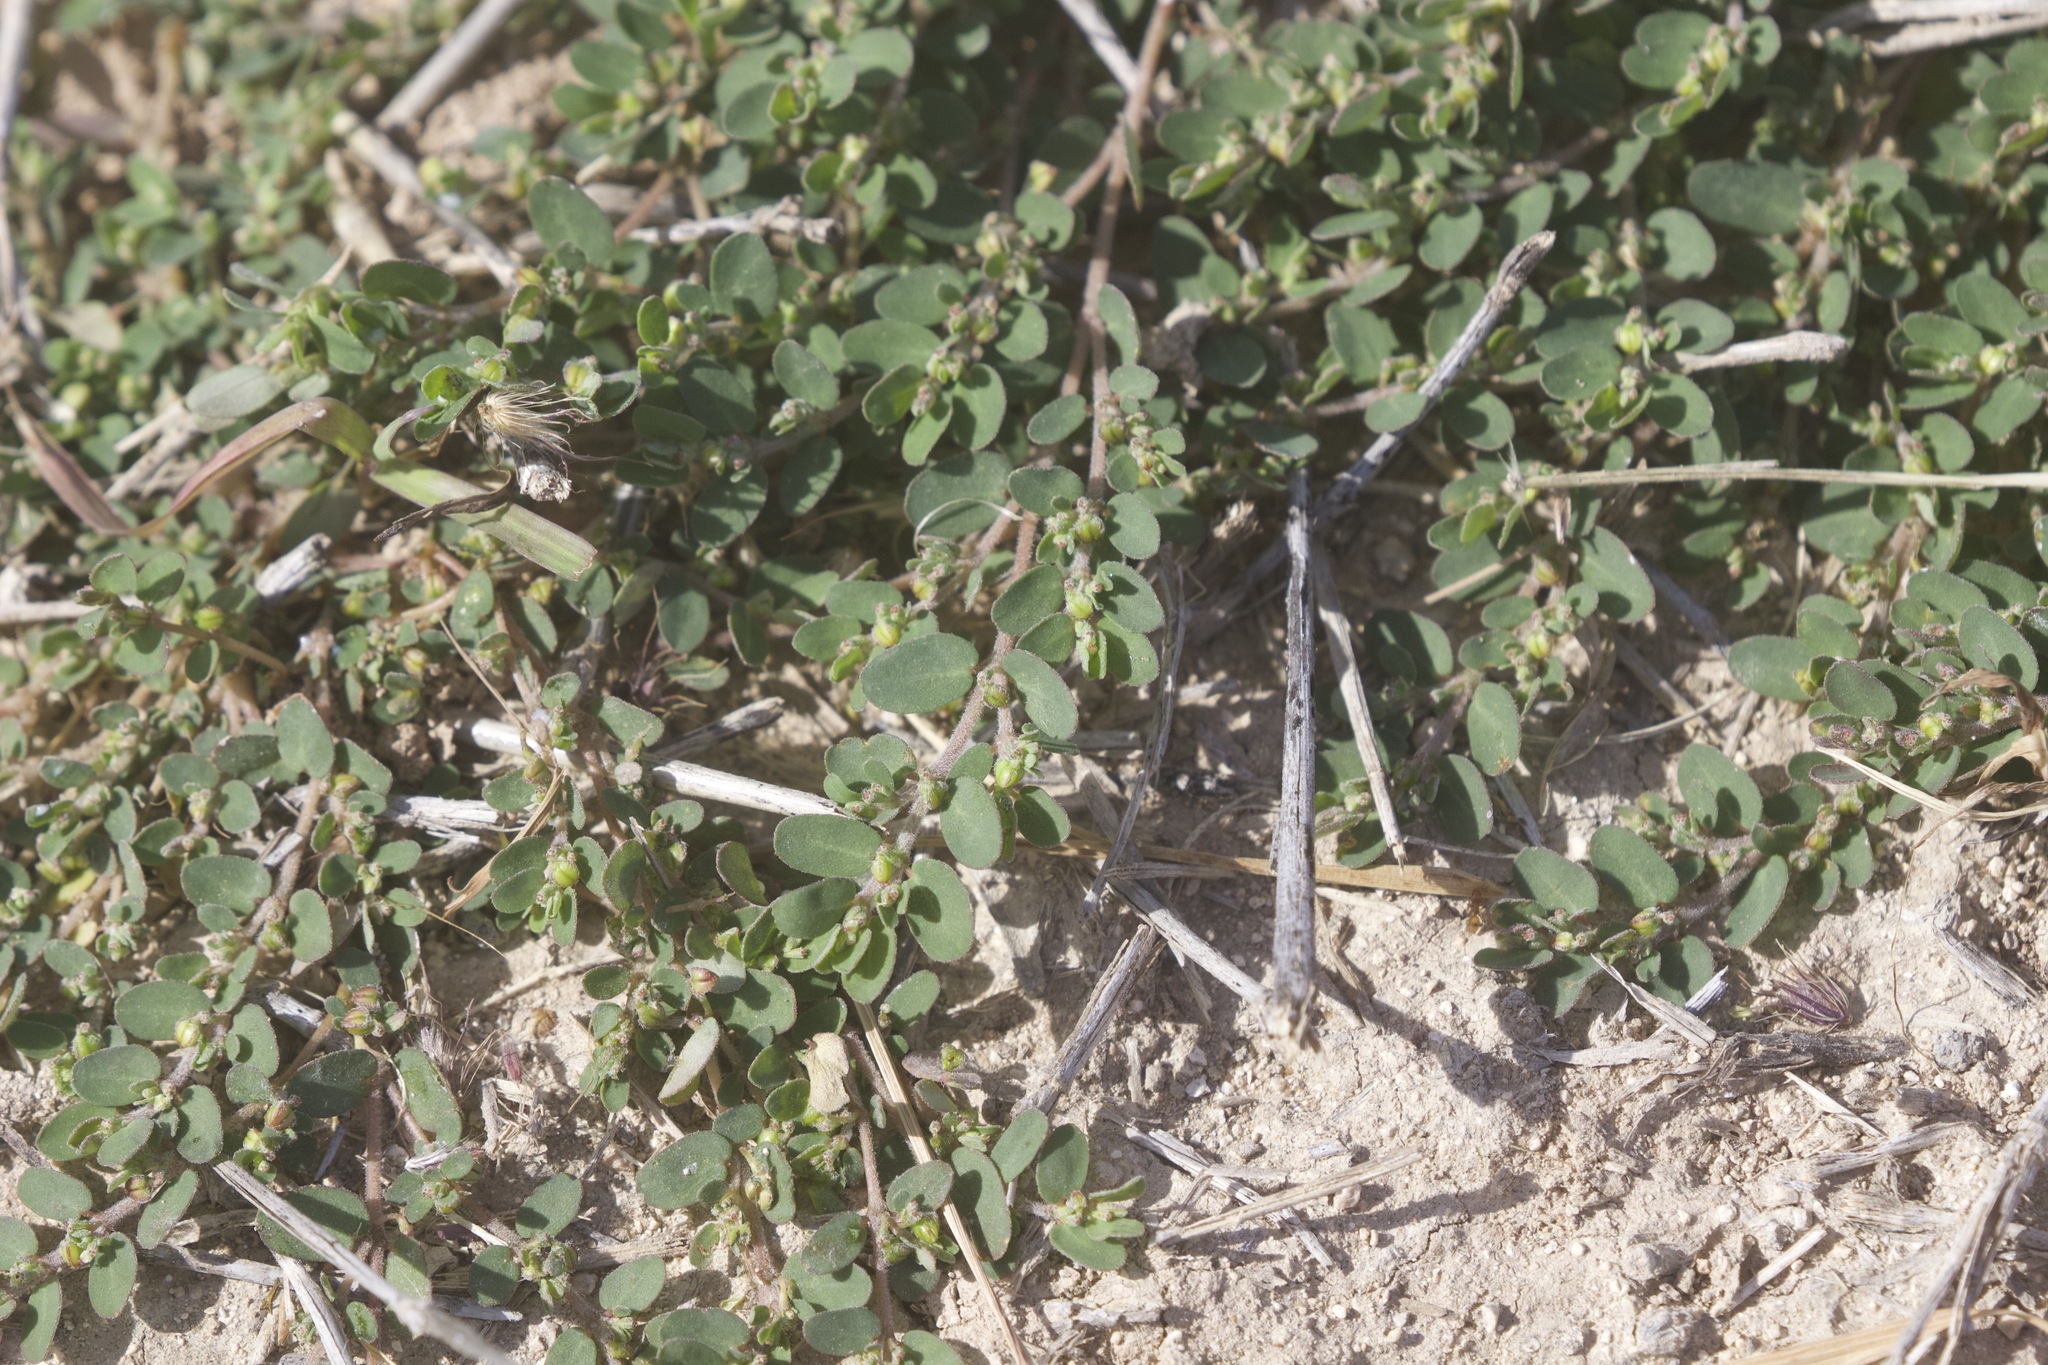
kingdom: Plantae
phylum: Tracheophyta
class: Magnoliopsida
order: Malpighiales
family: Euphorbiaceae
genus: Euphorbia
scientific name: Euphorbia prostrata
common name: Prostrate sandmat
